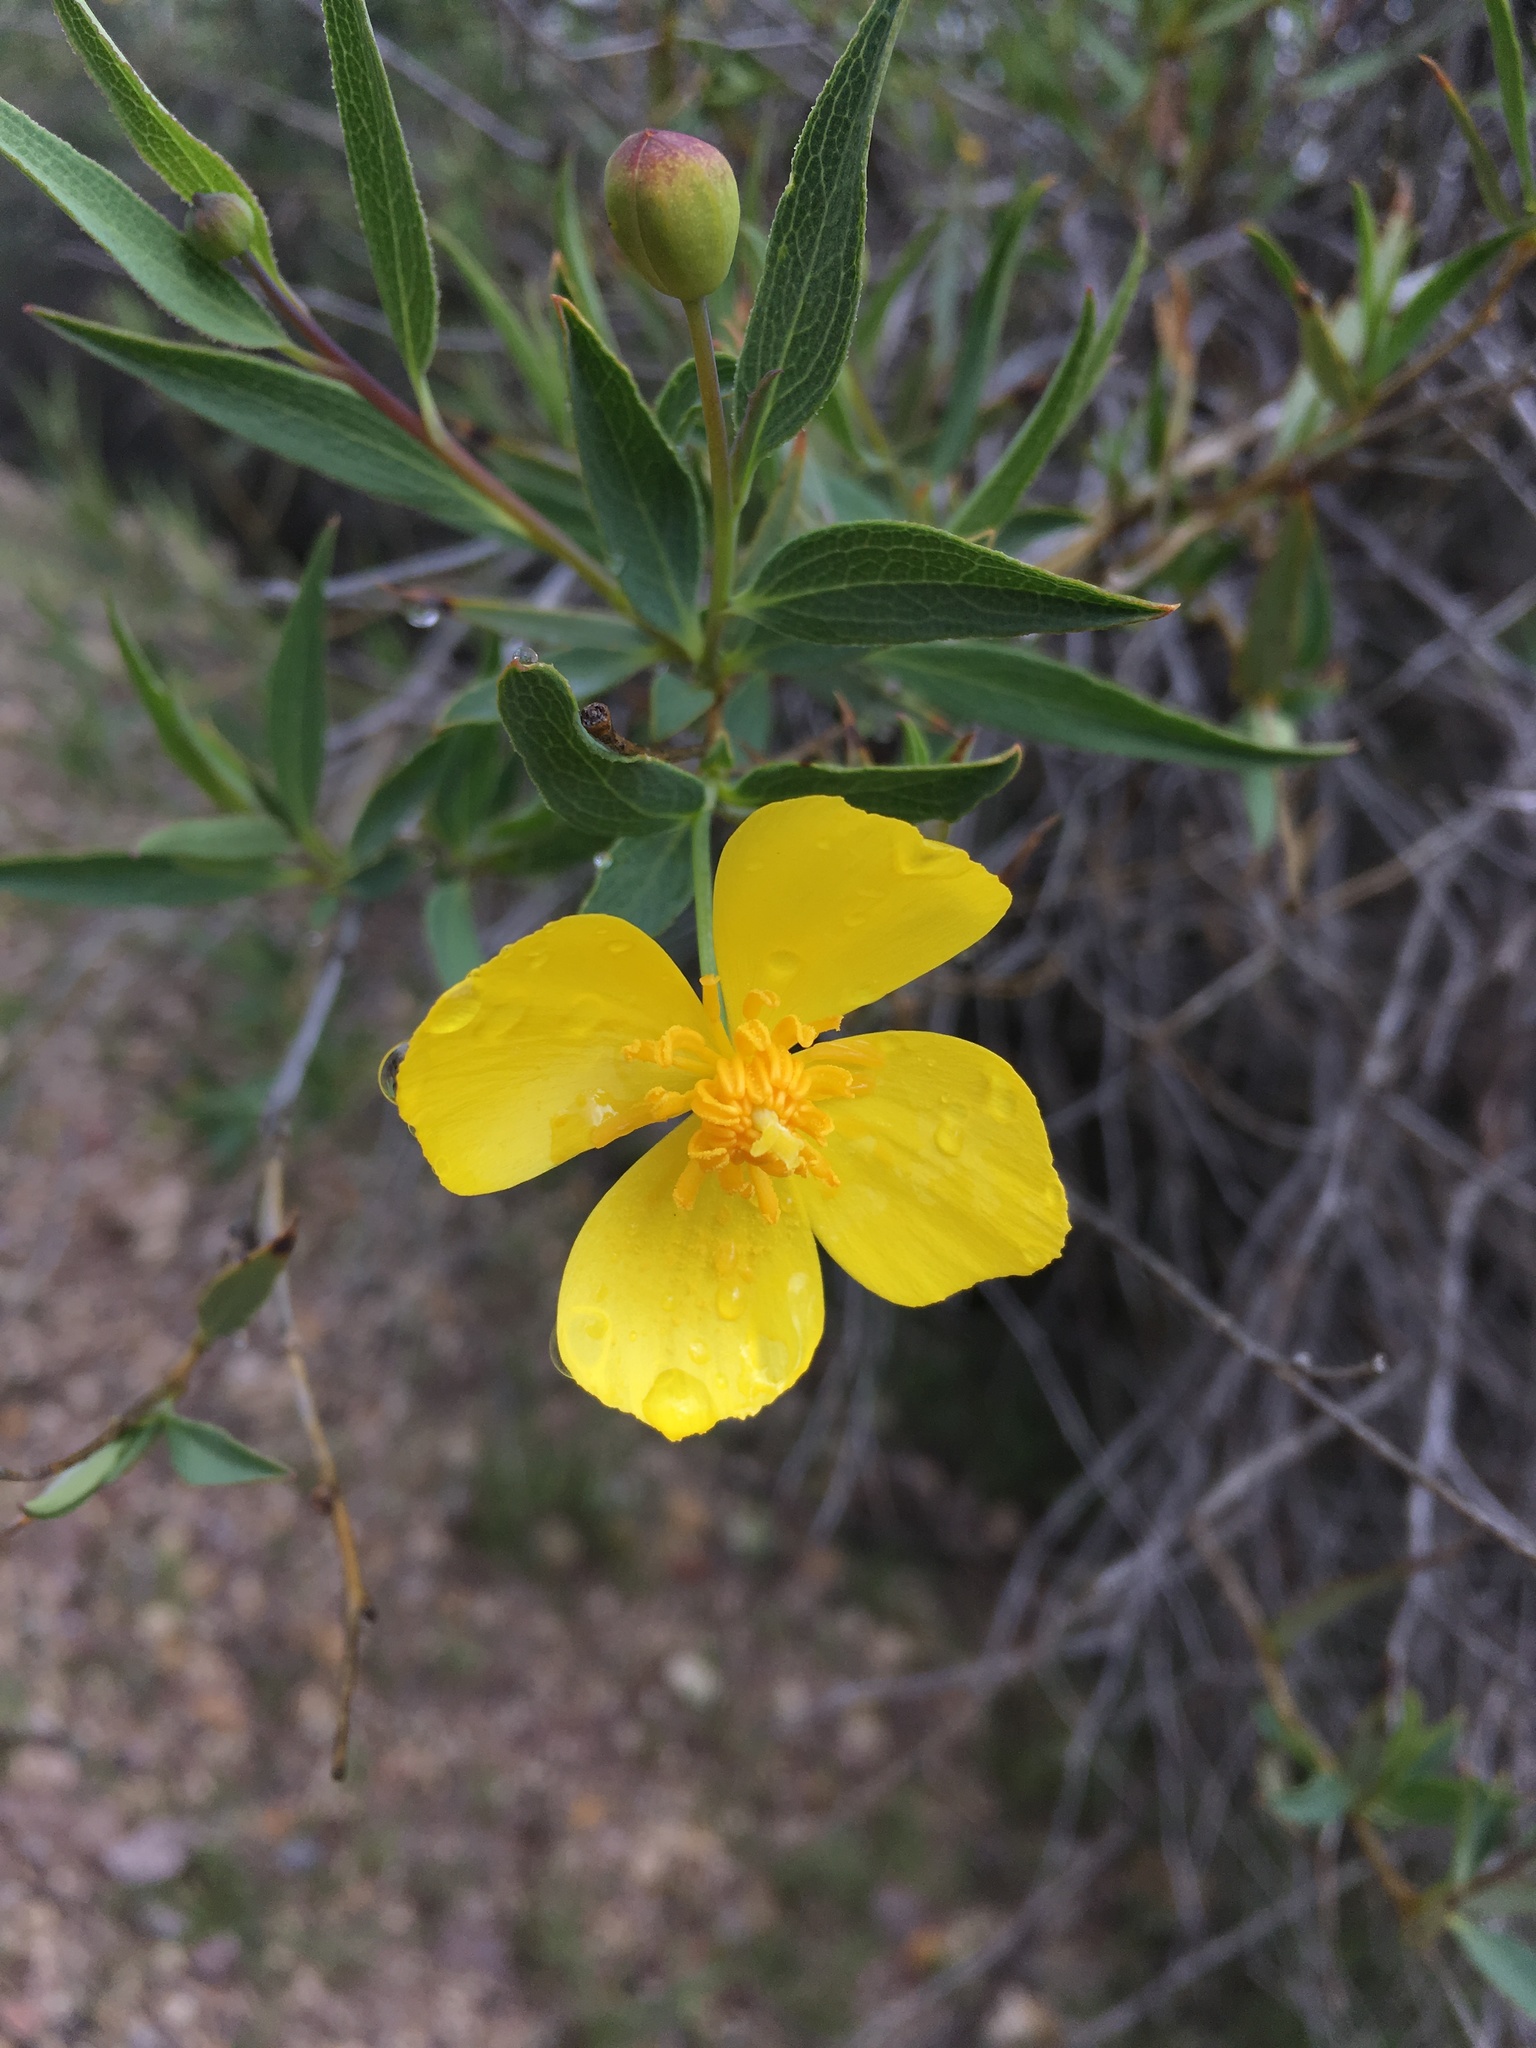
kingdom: Plantae
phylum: Tracheophyta
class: Magnoliopsida
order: Ranunculales
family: Papaveraceae
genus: Dendromecon
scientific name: Dendromecon rigida
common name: Tree poppy
